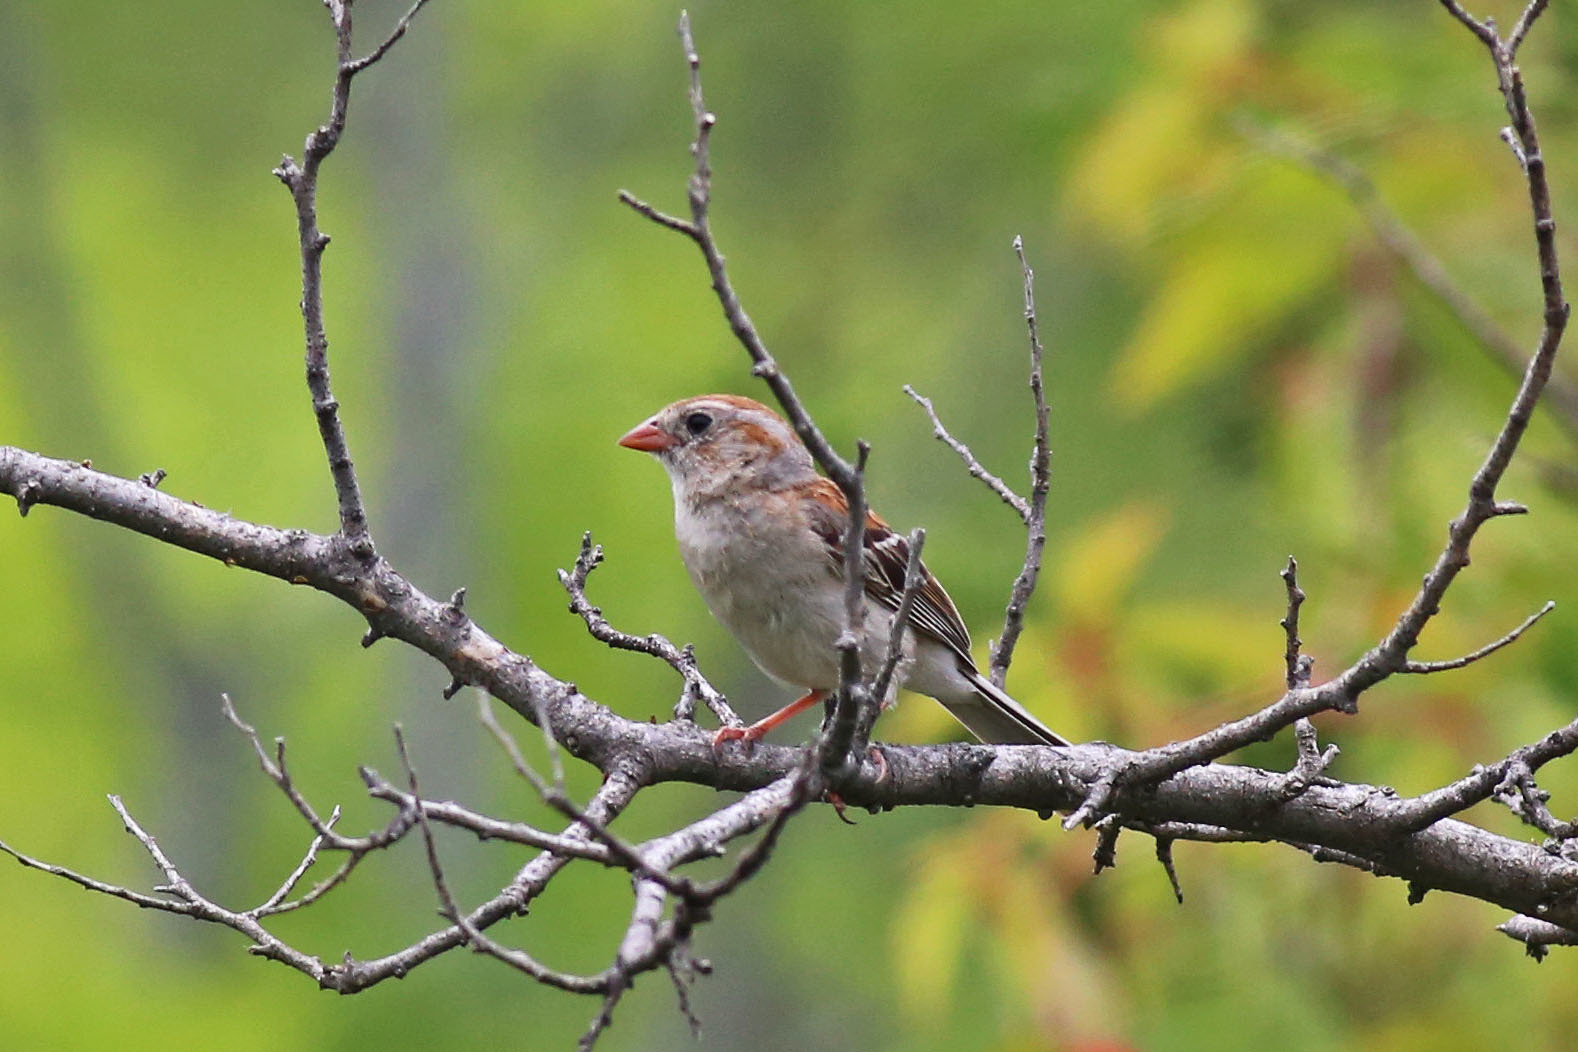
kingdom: Animalia
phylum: Chordata
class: Aves
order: Passeriformes
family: Passerellidae
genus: Spizella
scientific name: Spizella pusilla
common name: Field sparrow
